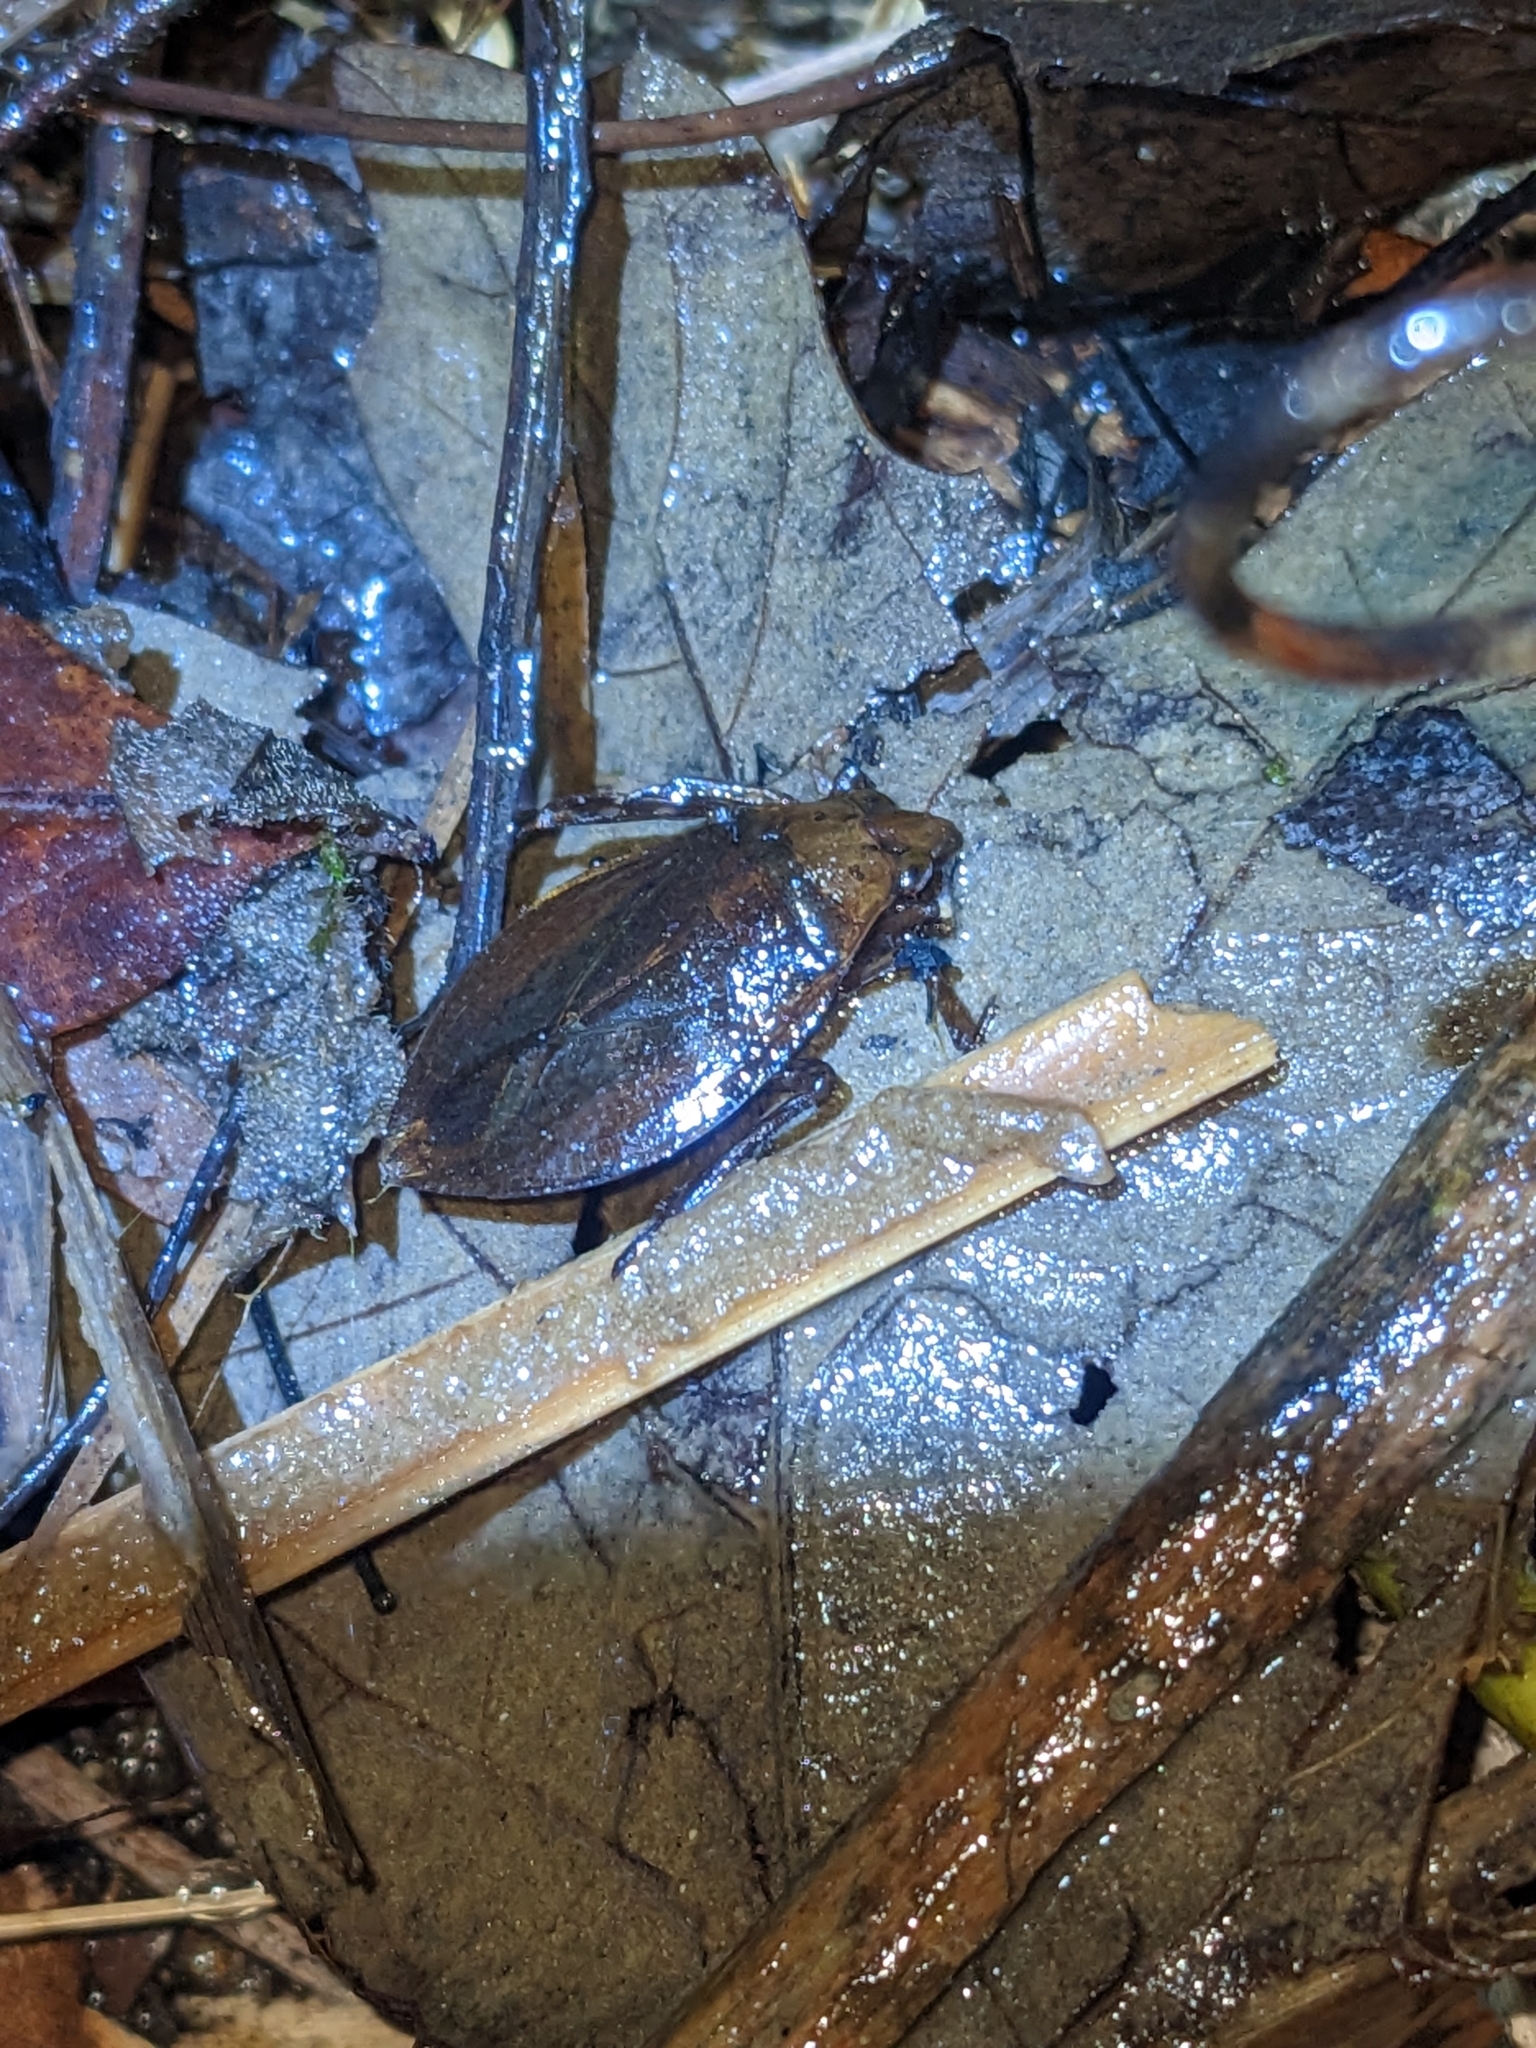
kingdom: Animalia
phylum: Arthropoda
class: Insecta
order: Hemiptera
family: Belostomatidae
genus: Belostoma
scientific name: Belostoma lutarium
